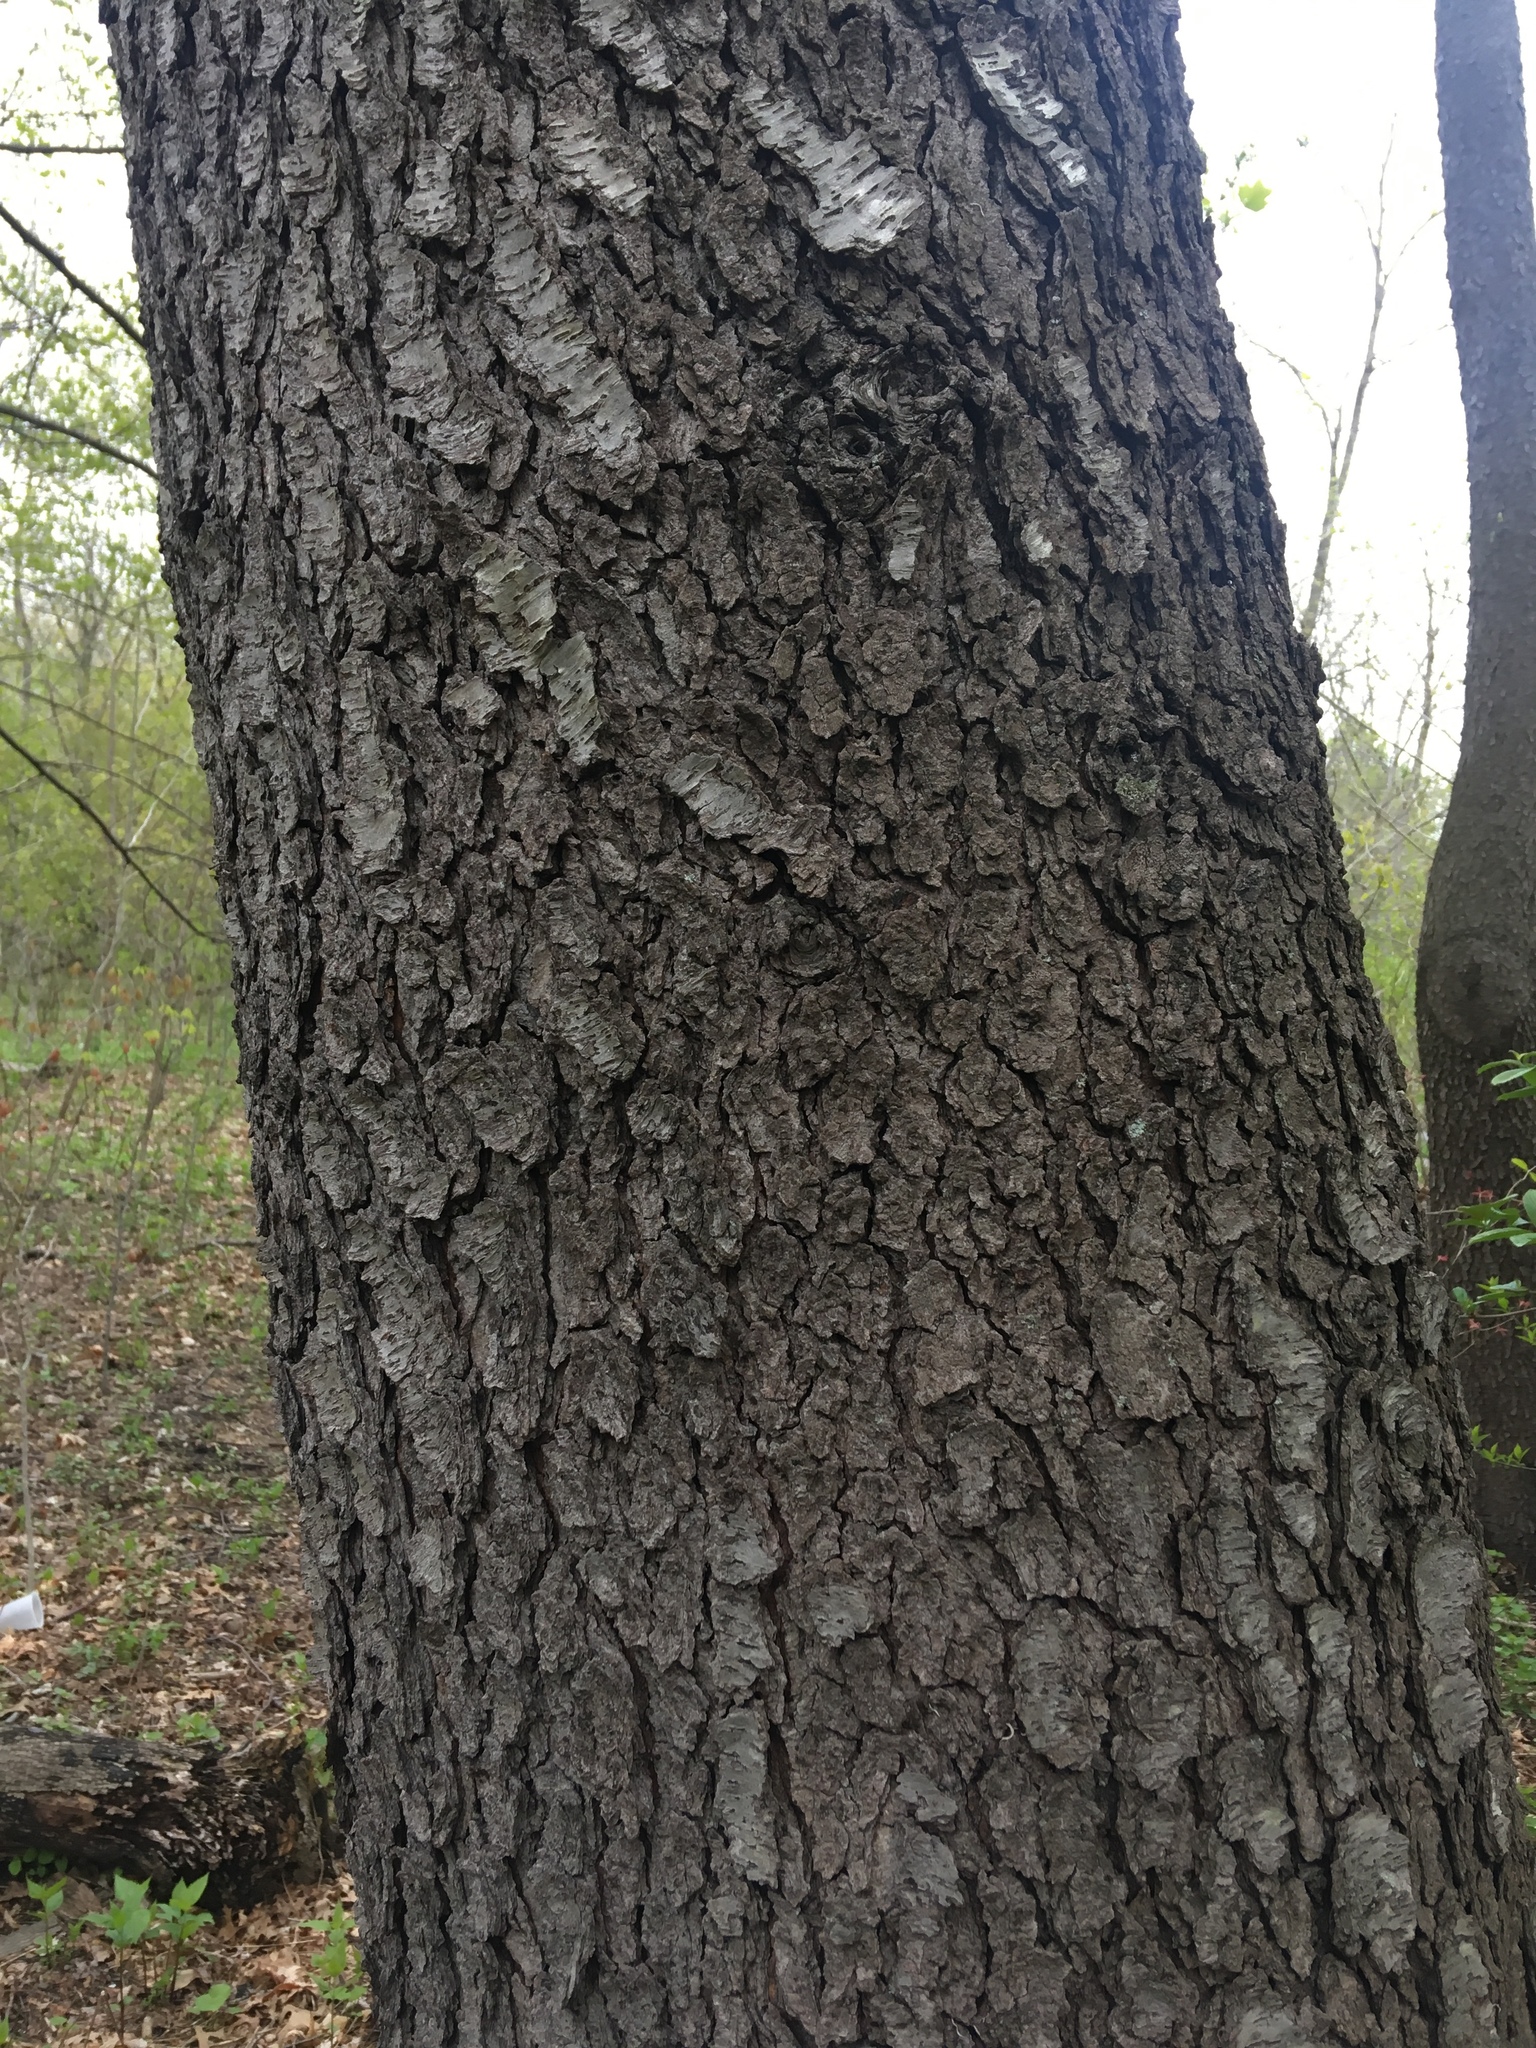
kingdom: Plantae
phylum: Tracheophyta
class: Magnoliopsida
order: Rosales
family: Rosaceae
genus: Prunus
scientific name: Prunus serotina
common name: Black cherry
